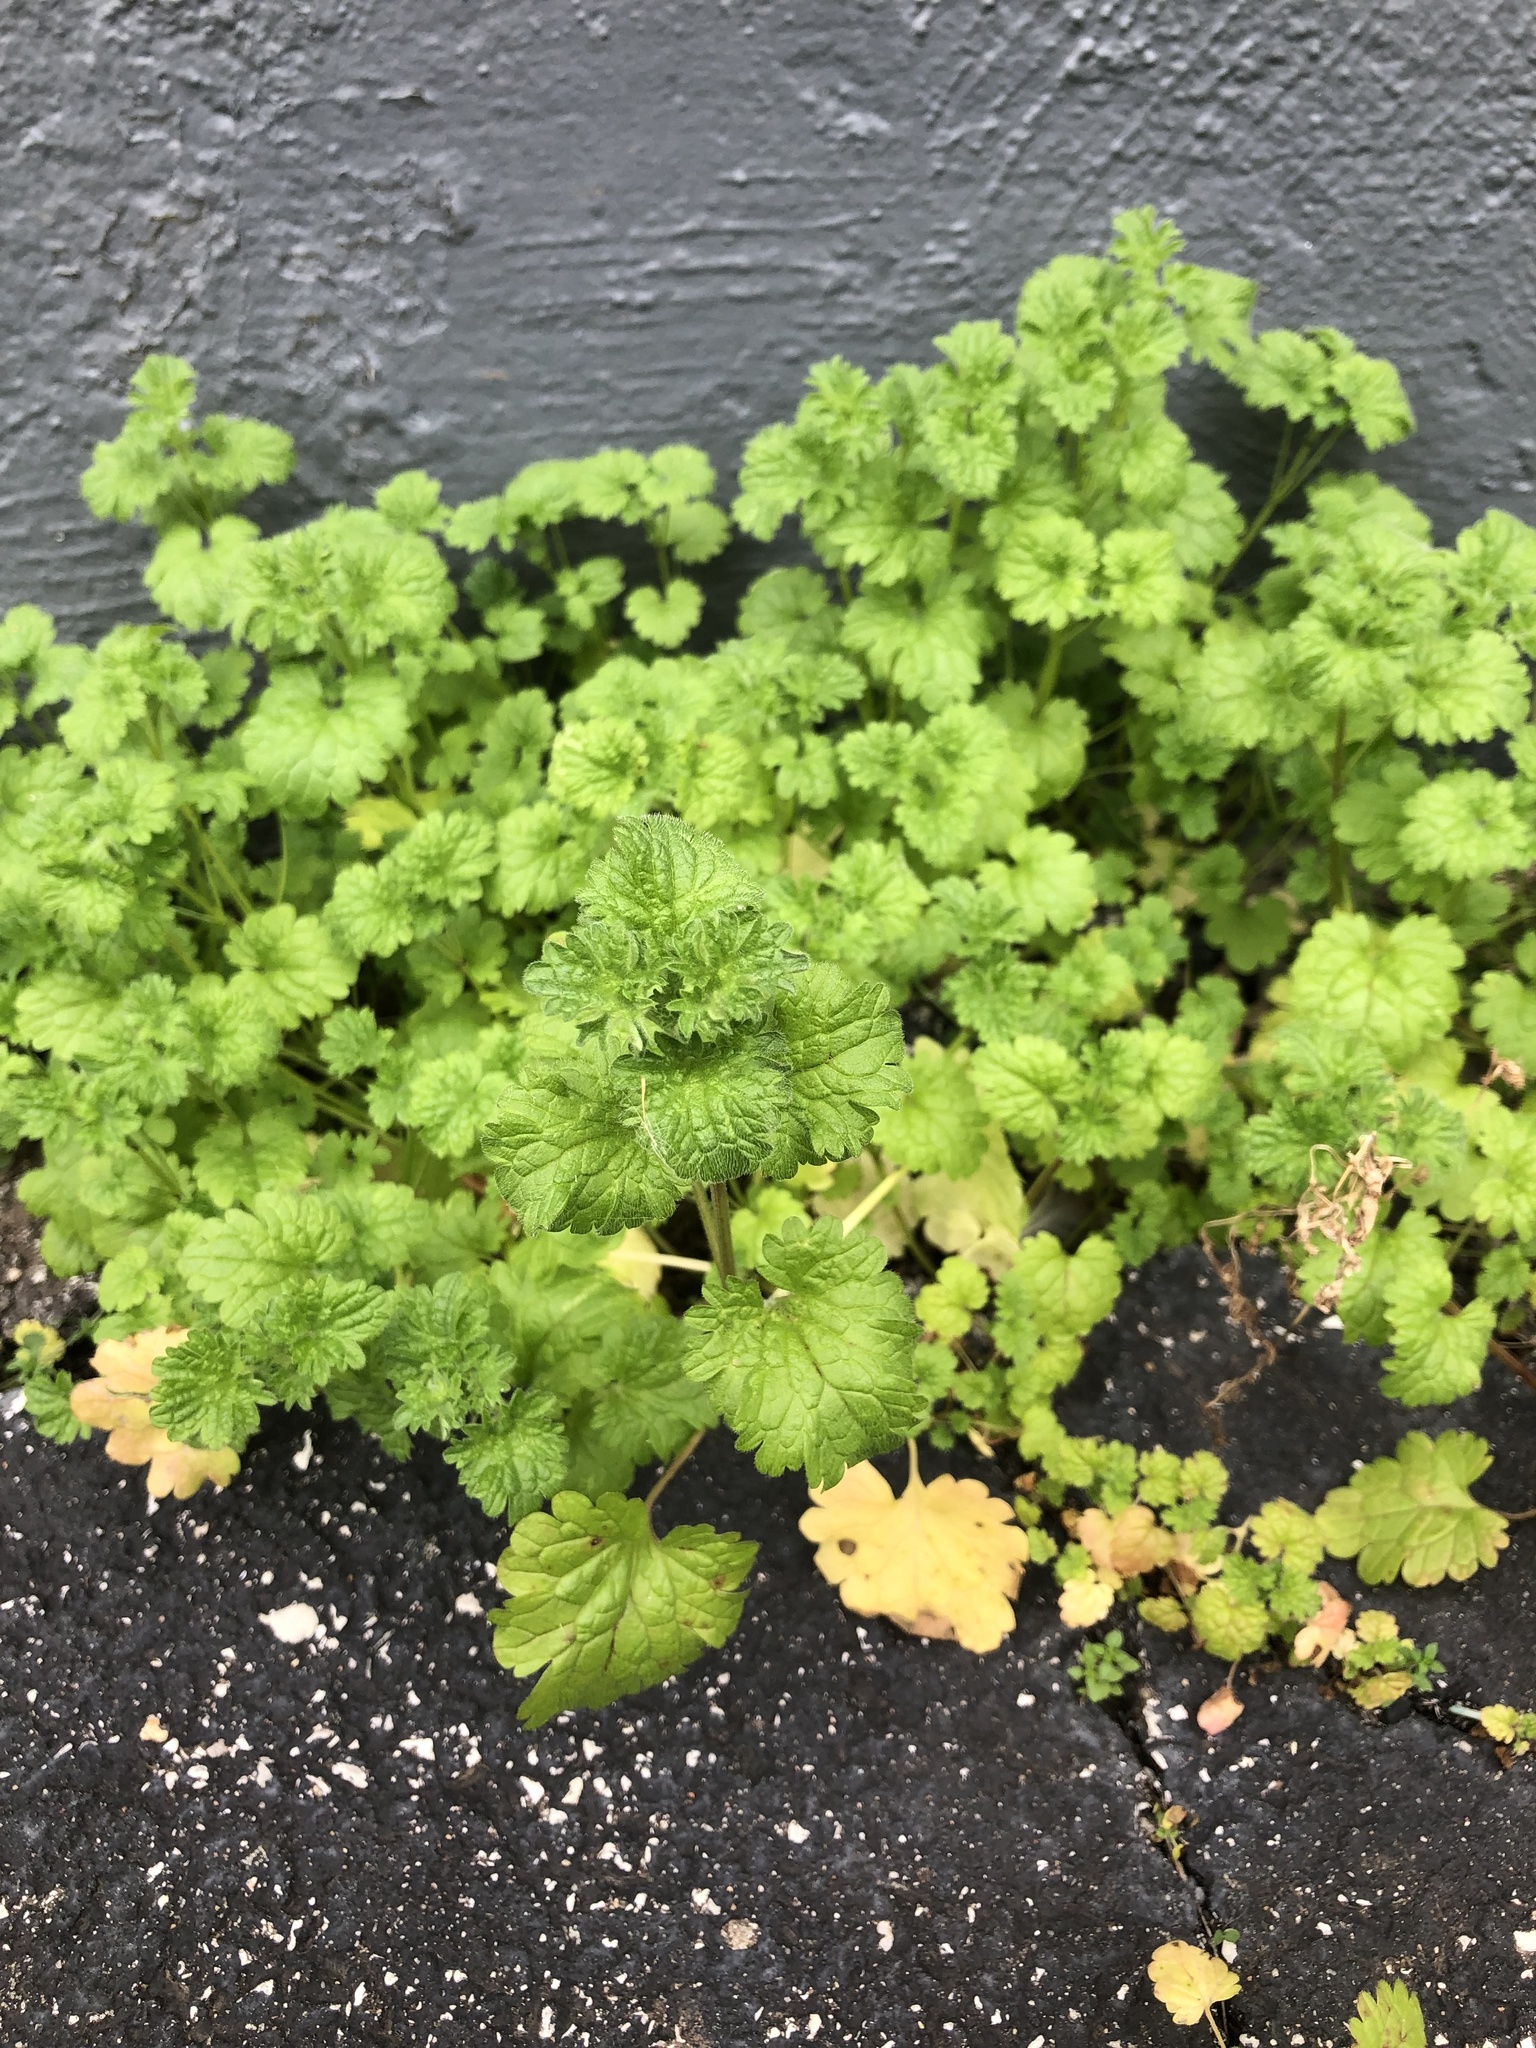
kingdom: Plantae
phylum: Tracheophyta
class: Magnoliopsida
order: Lamiales
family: Lamiaceae
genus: Lamium
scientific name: Lamium amplexicaule
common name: Henbit dead-nettle
